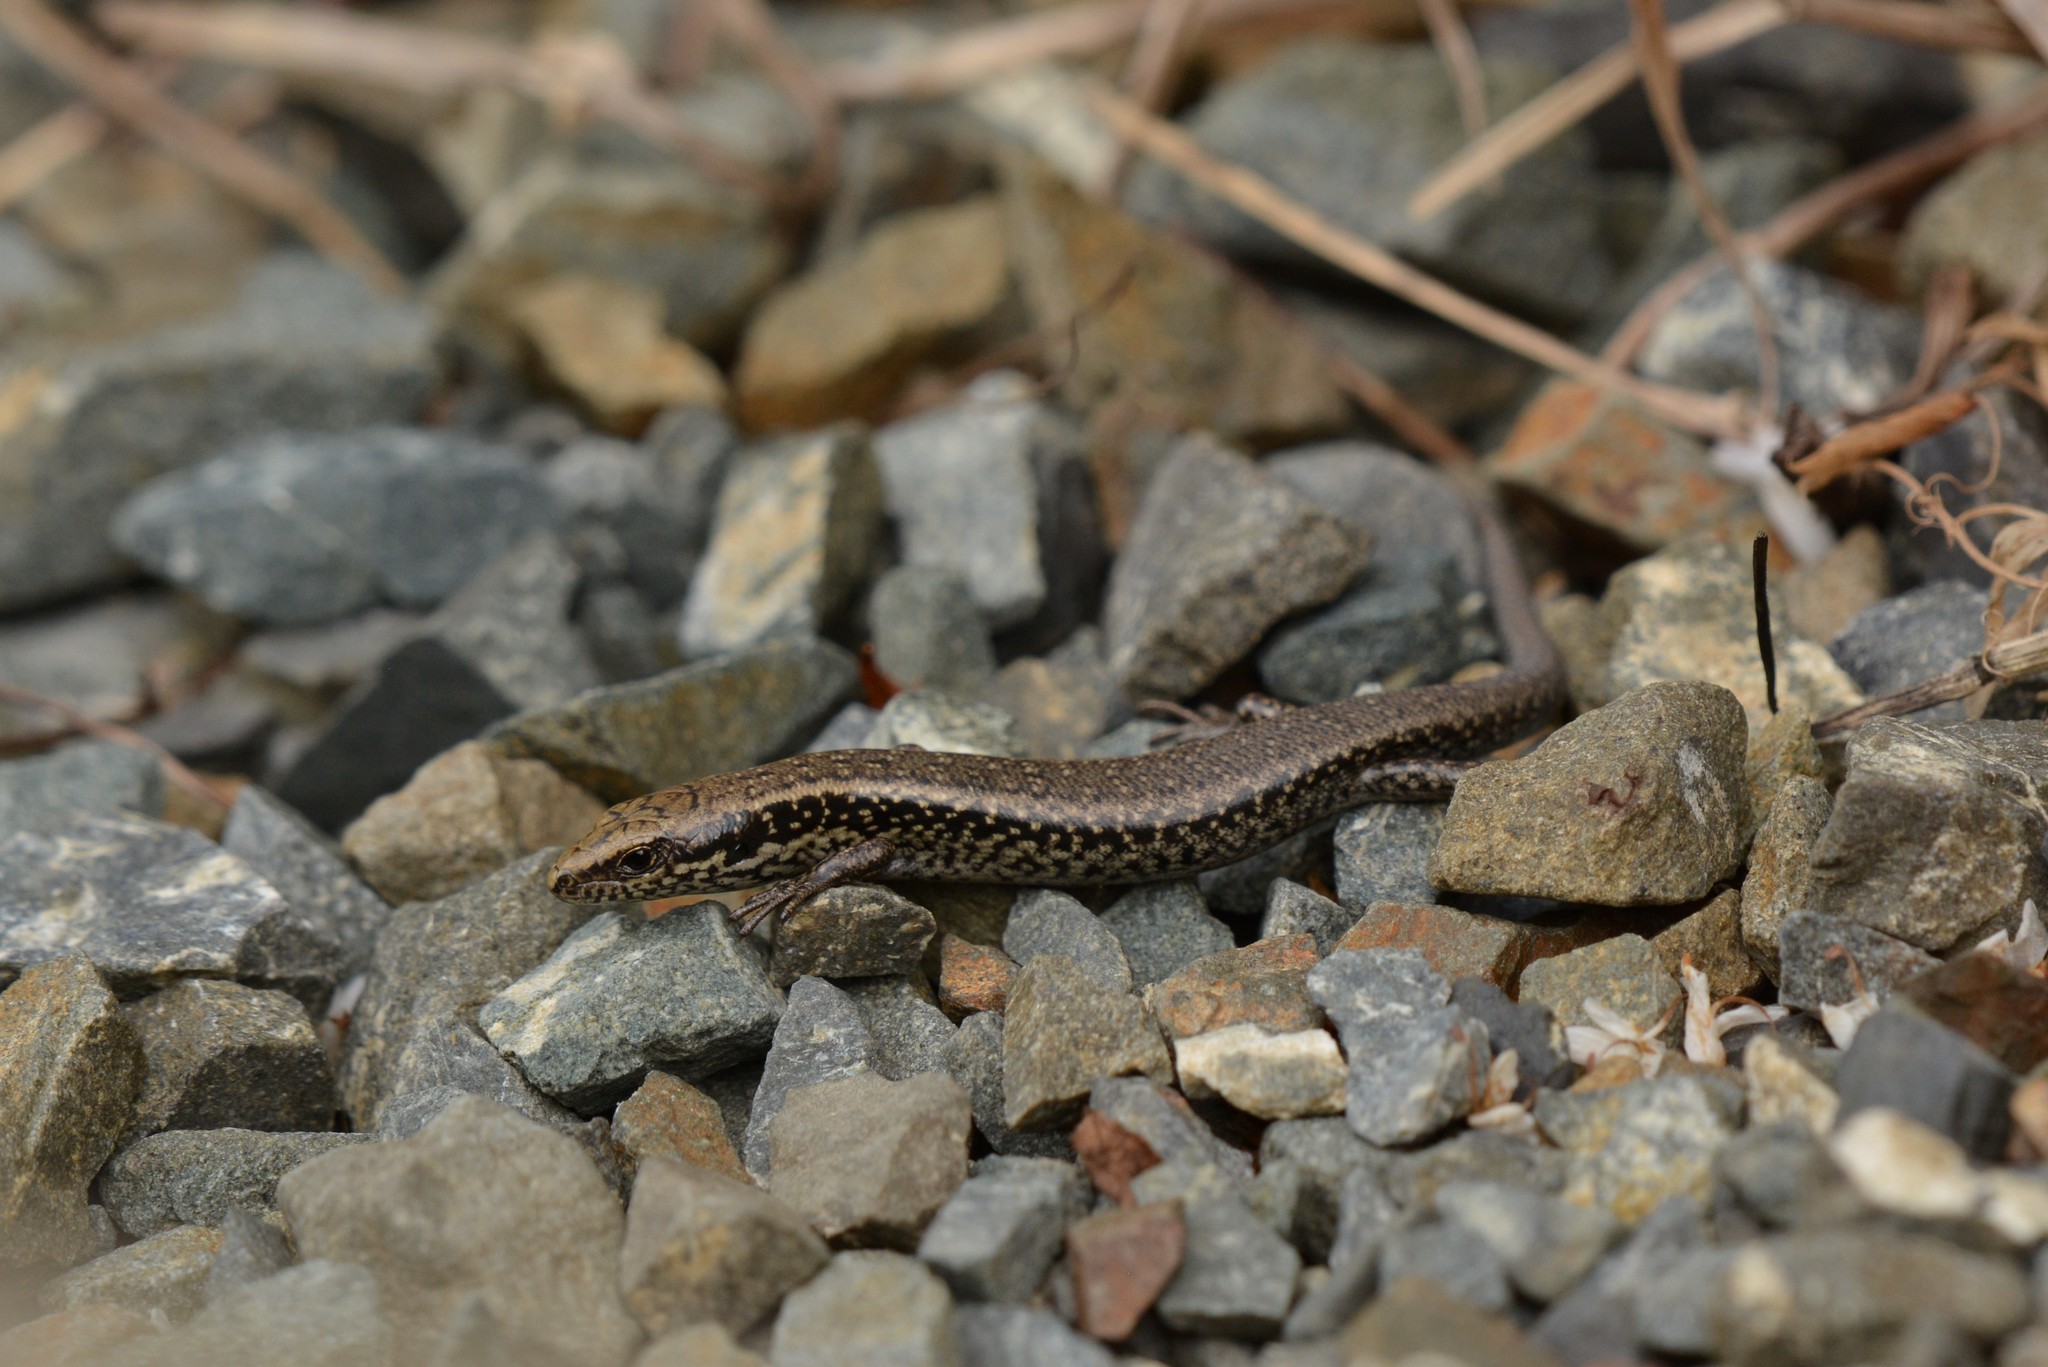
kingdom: Animalia
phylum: Chordata
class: Squamata
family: Scincidae
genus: Oligosoma
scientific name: Oligosoma kokowai
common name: Northern spotted skink
